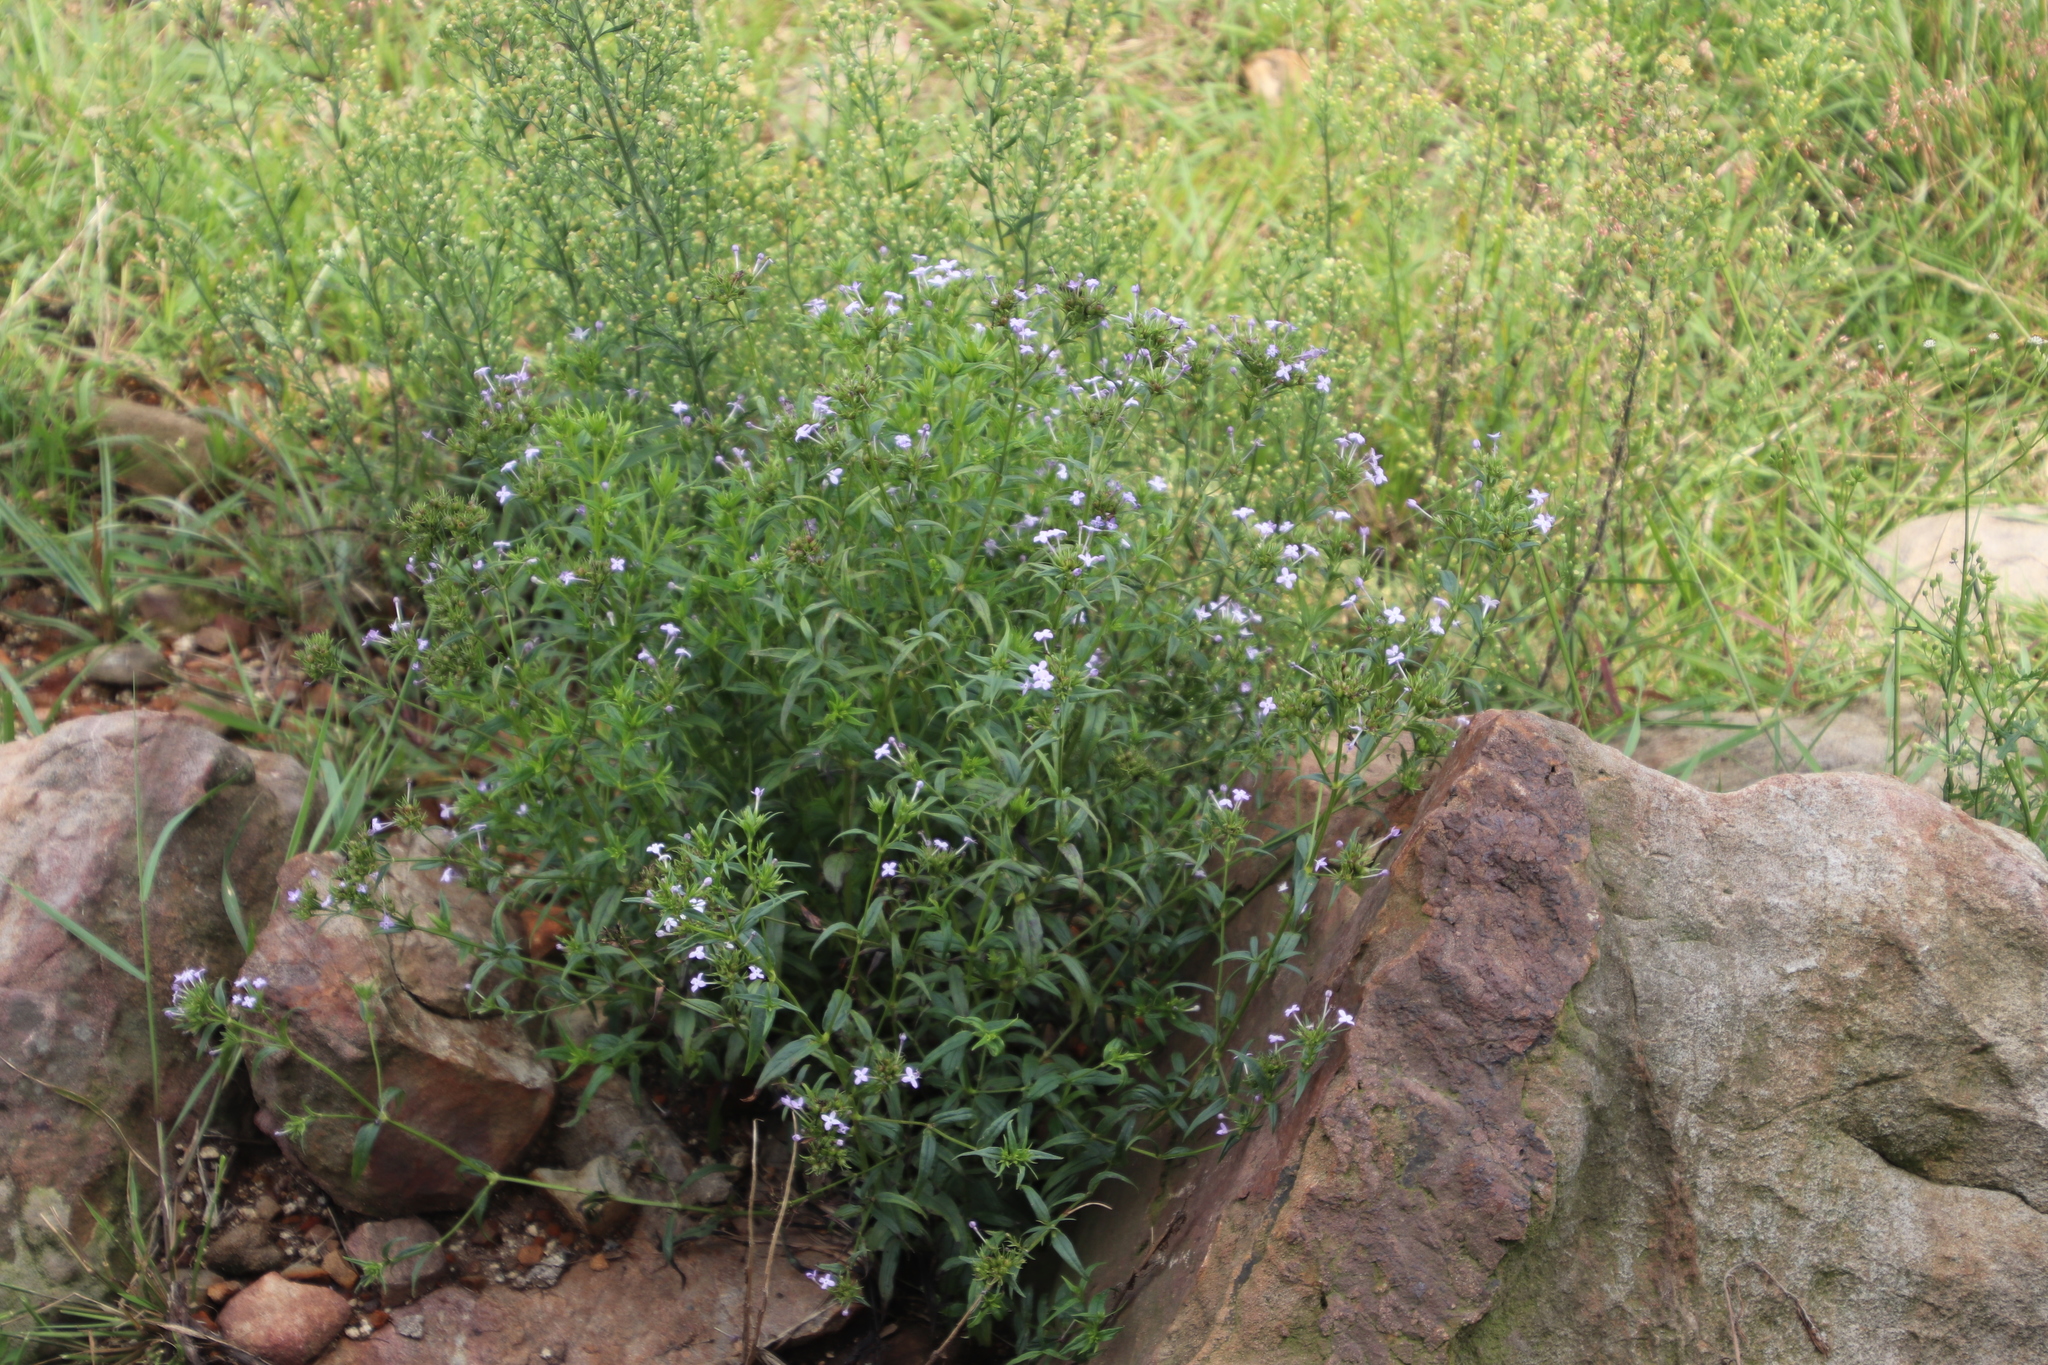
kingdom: Plantae
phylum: Tracheophyta
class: Magnoliopsida
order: Gentianales
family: Rubiaceae
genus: Conostomium
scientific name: Conostomium natalense
